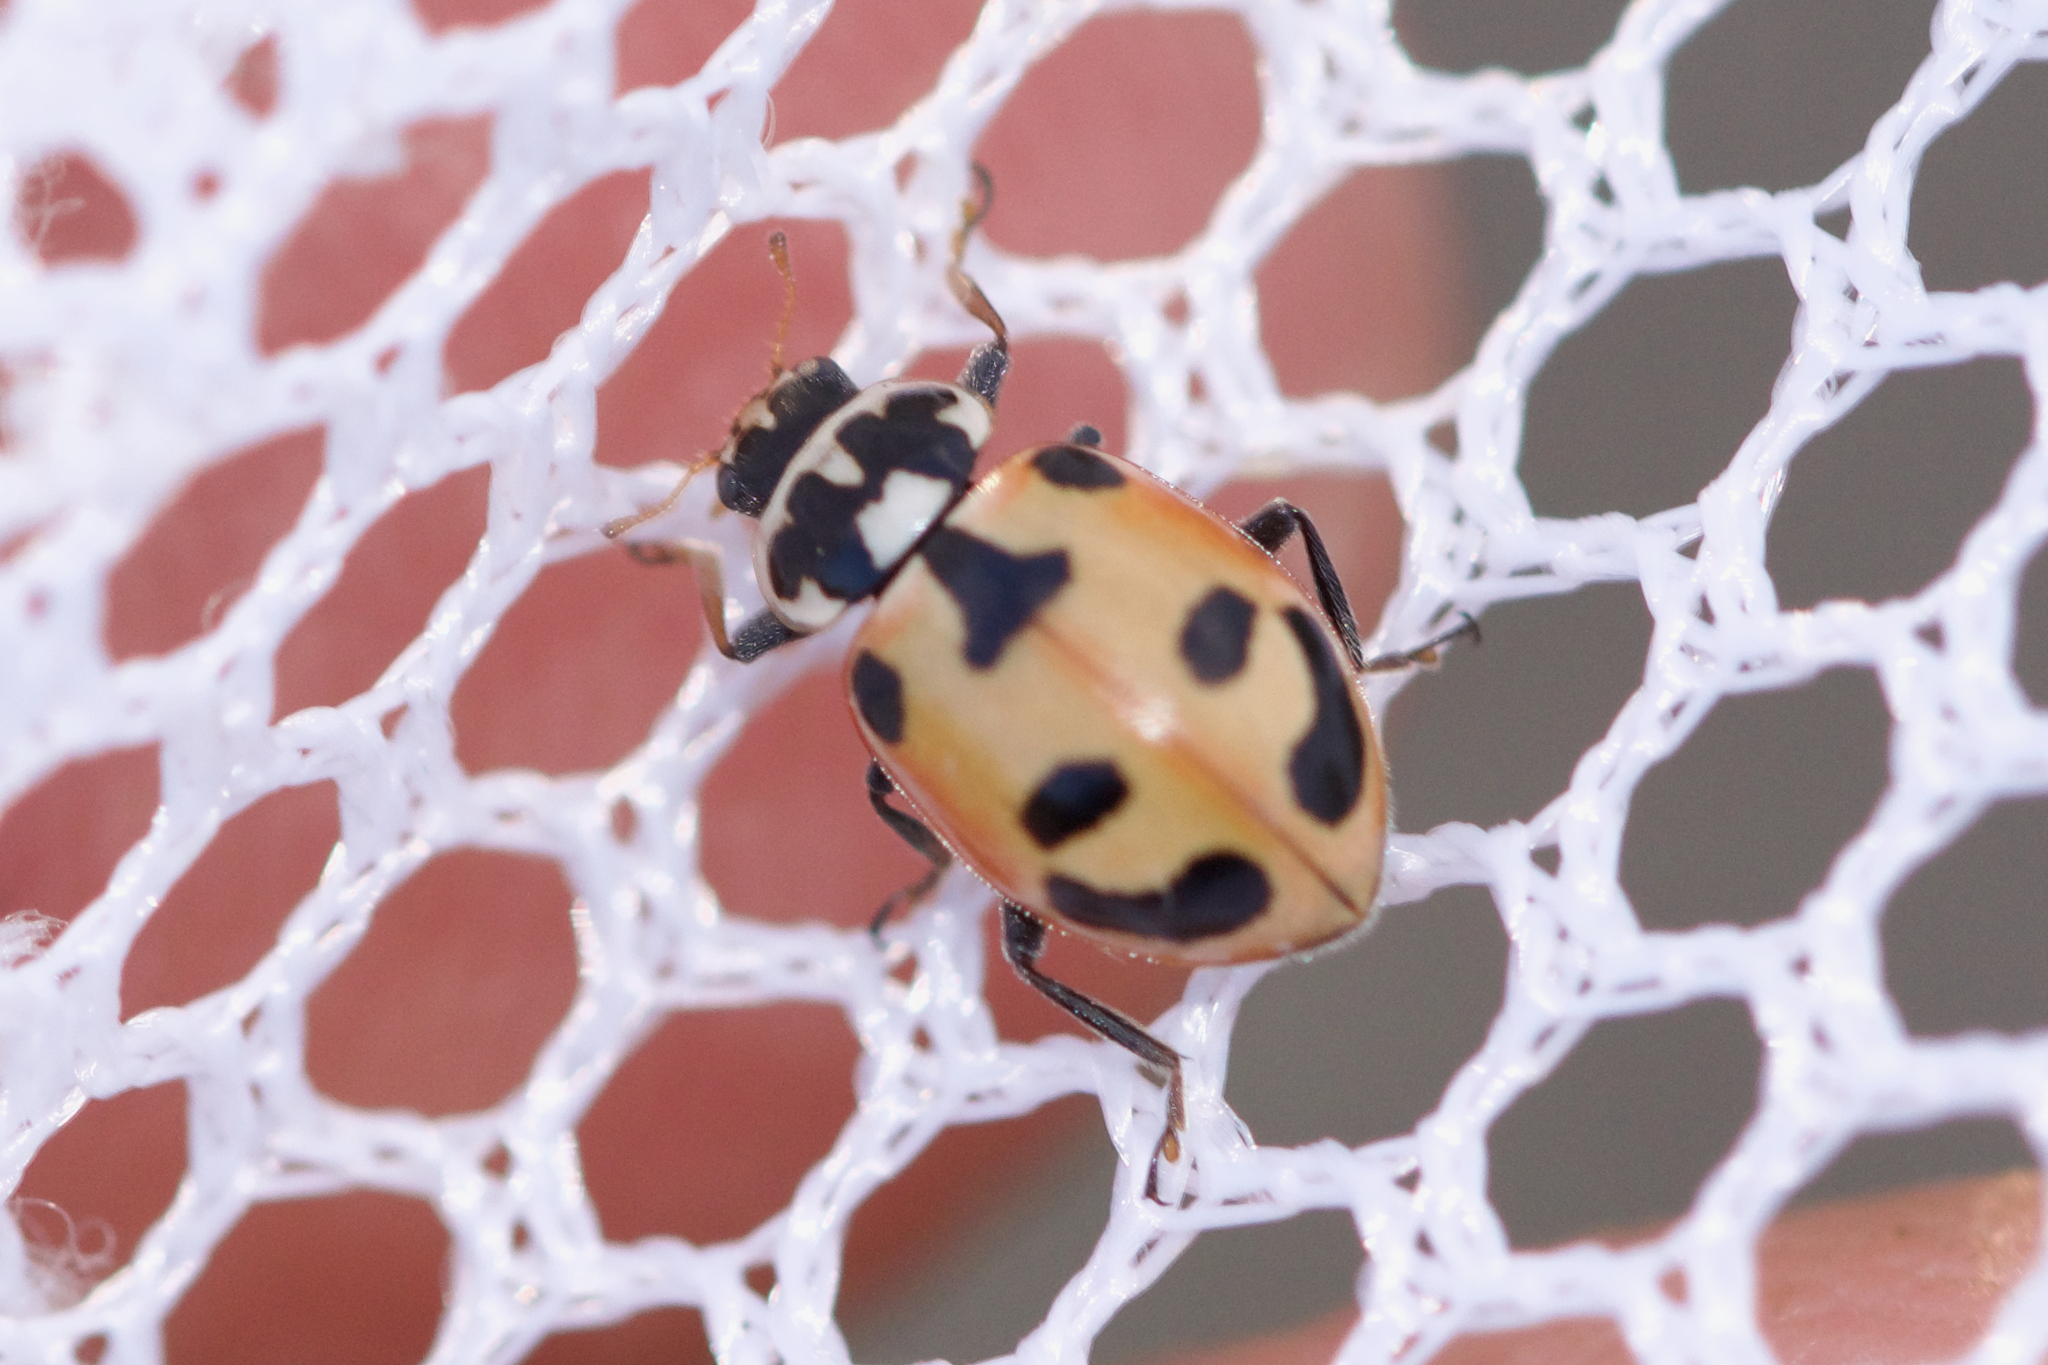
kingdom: Animalia
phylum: Arthropoda
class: Insecta
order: Coleoptera
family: Coccinellidae
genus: Hippodamia
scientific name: Hippodamia parenthesis
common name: Parenthesis lady beetle
